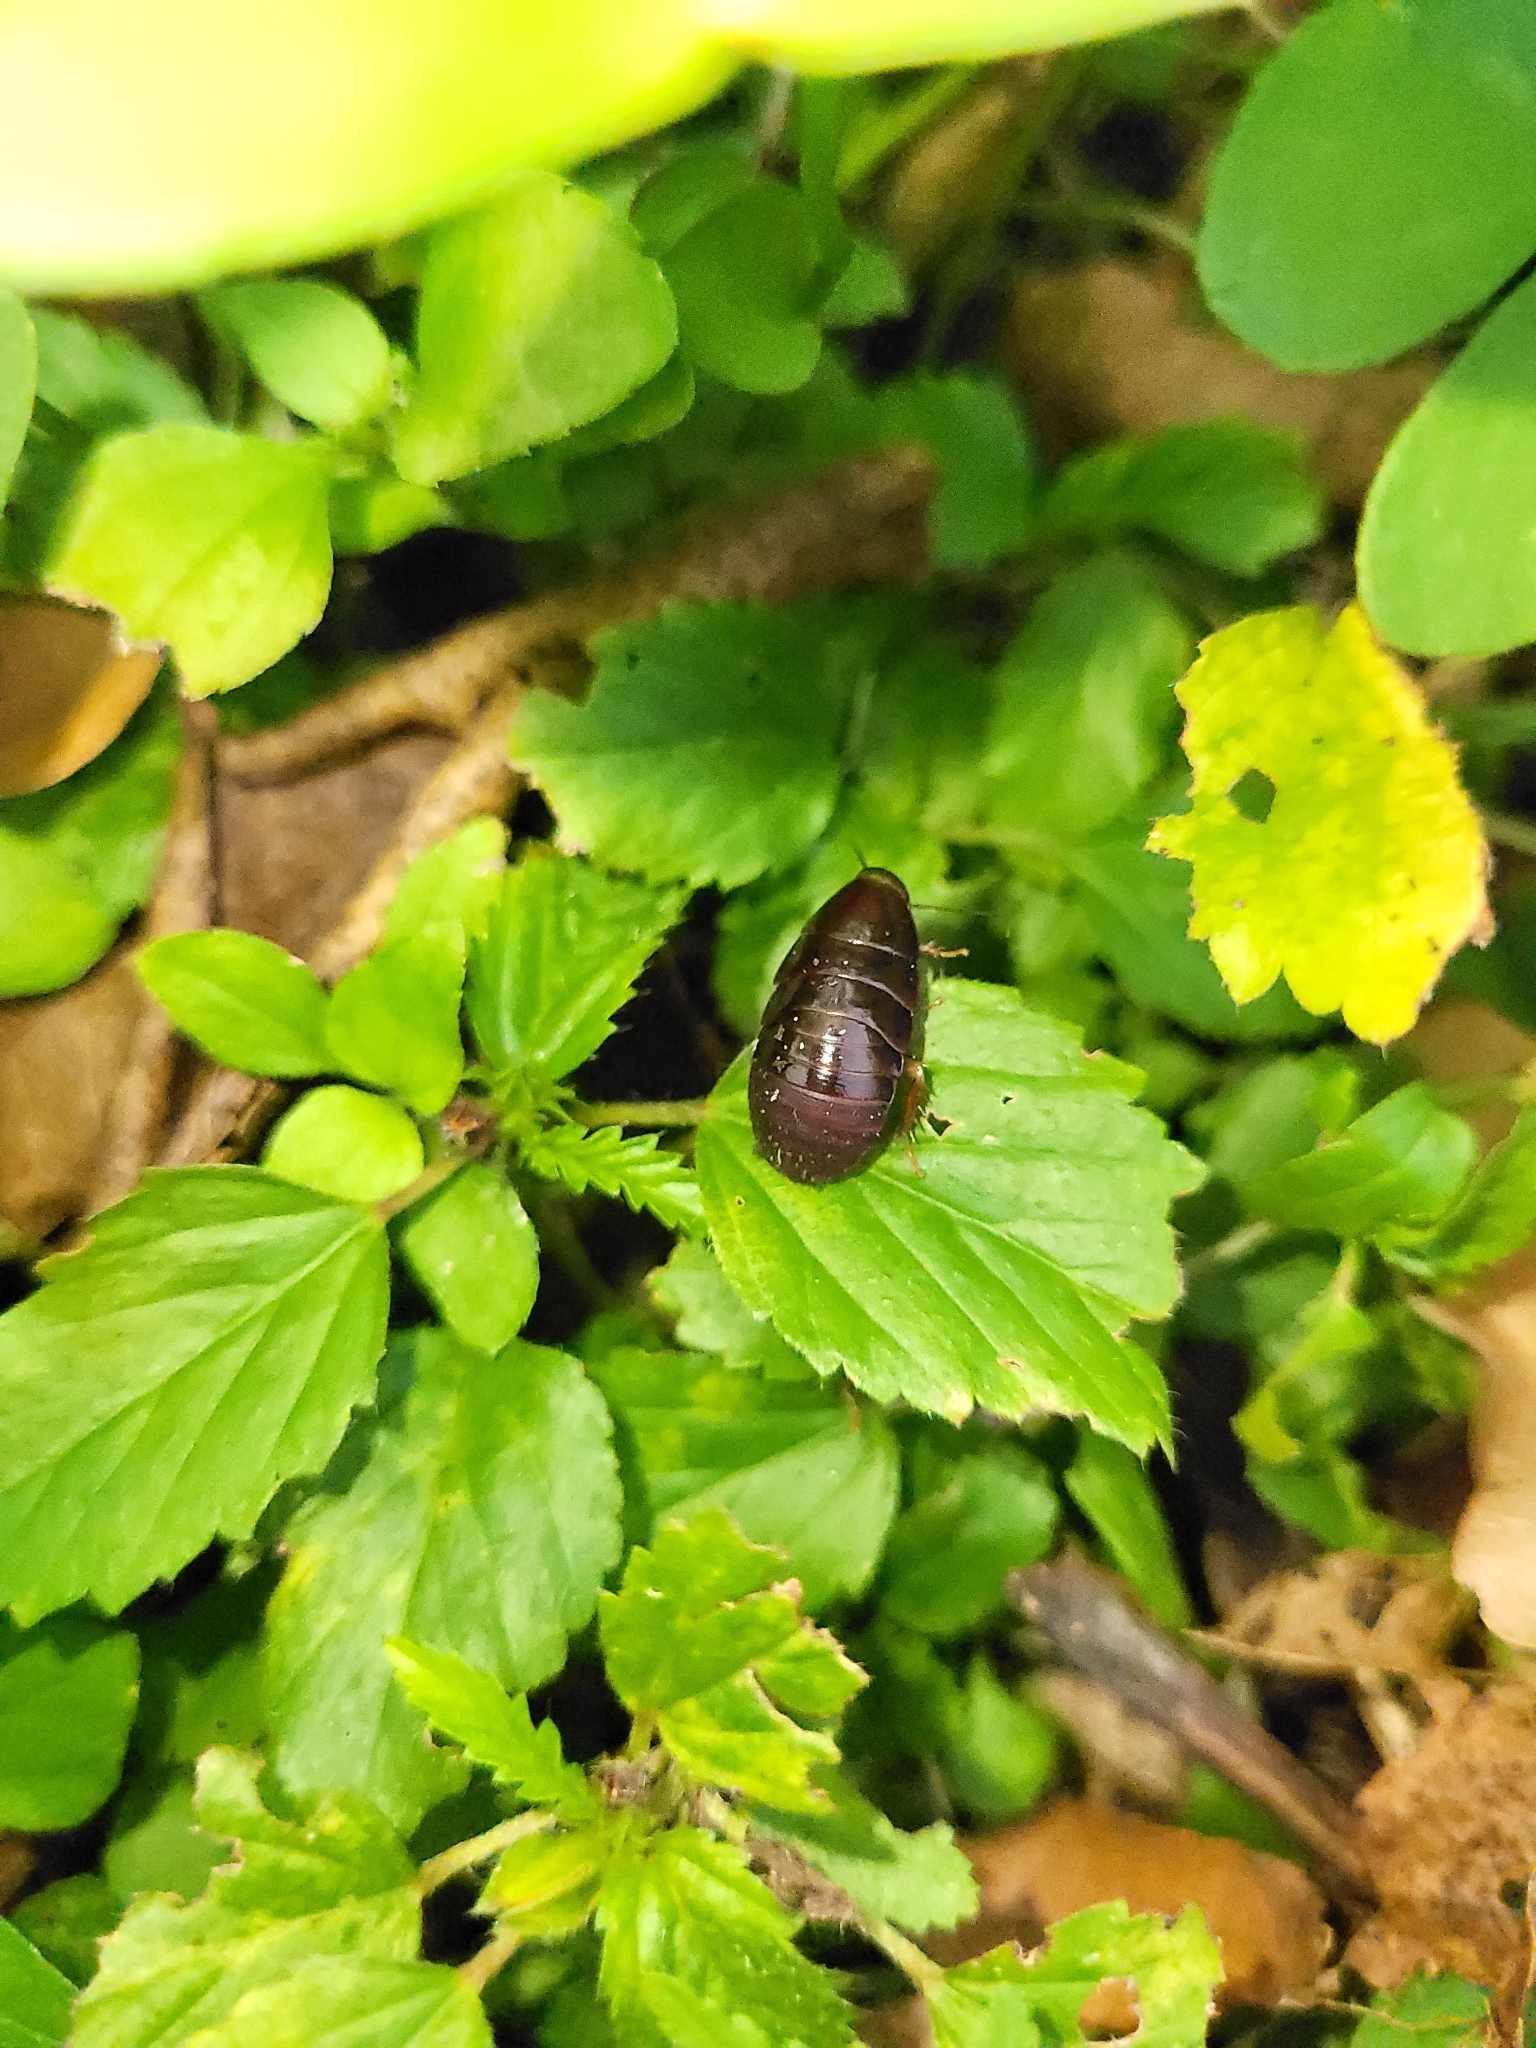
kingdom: Animalia
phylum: Arthropoda
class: Insecta
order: Blattodea
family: Blaberidae
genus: Pycnoscelus
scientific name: Pycnoscelus surinamensis
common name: Surinam cockroach
